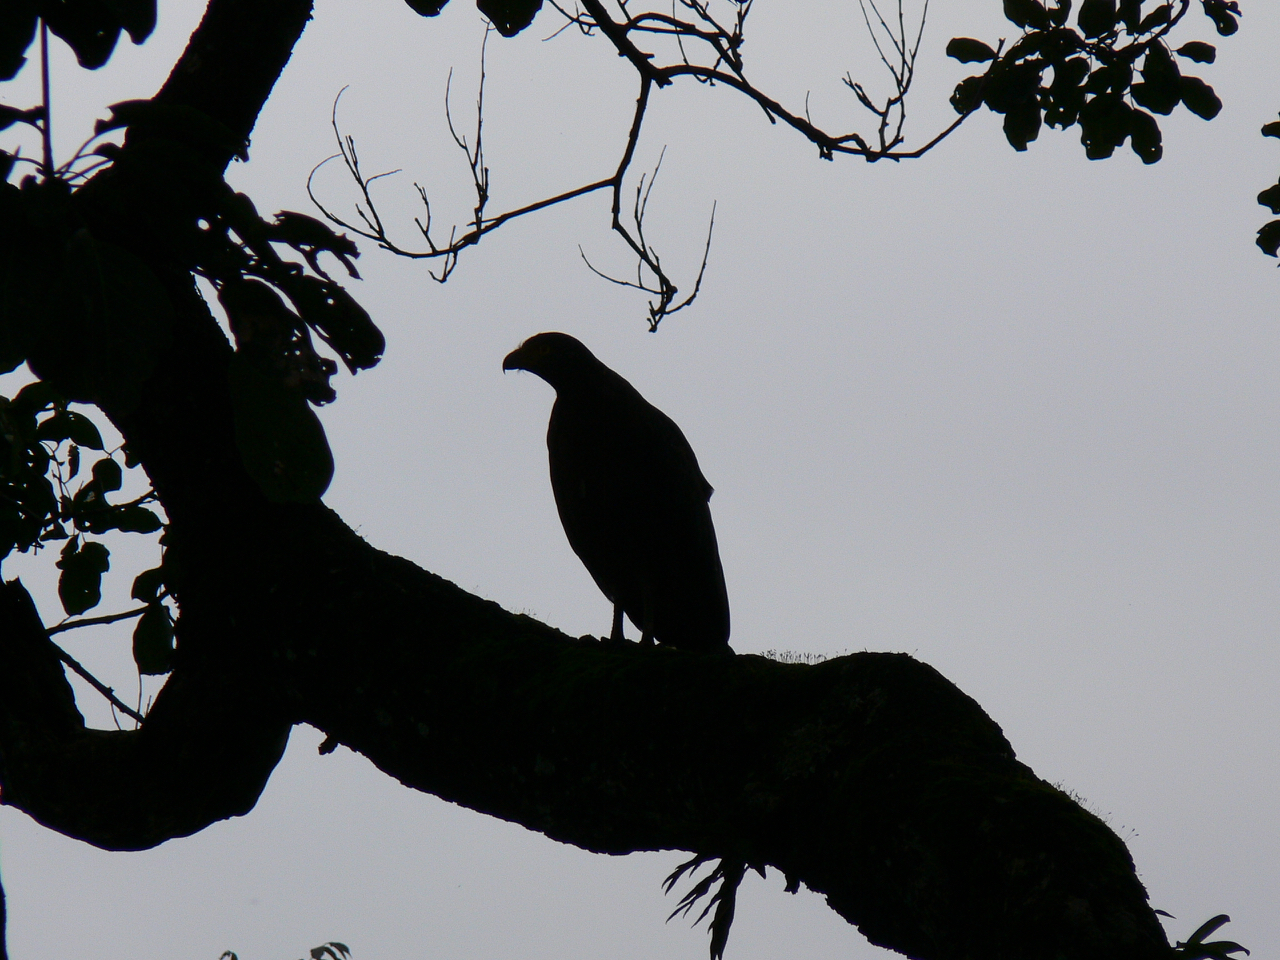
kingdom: Animalia
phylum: Chordata
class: Aves
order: Accipitriformes
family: Accipitridae
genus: Spilornis
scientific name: Spilornis cheela
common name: Crested serpent eagle
